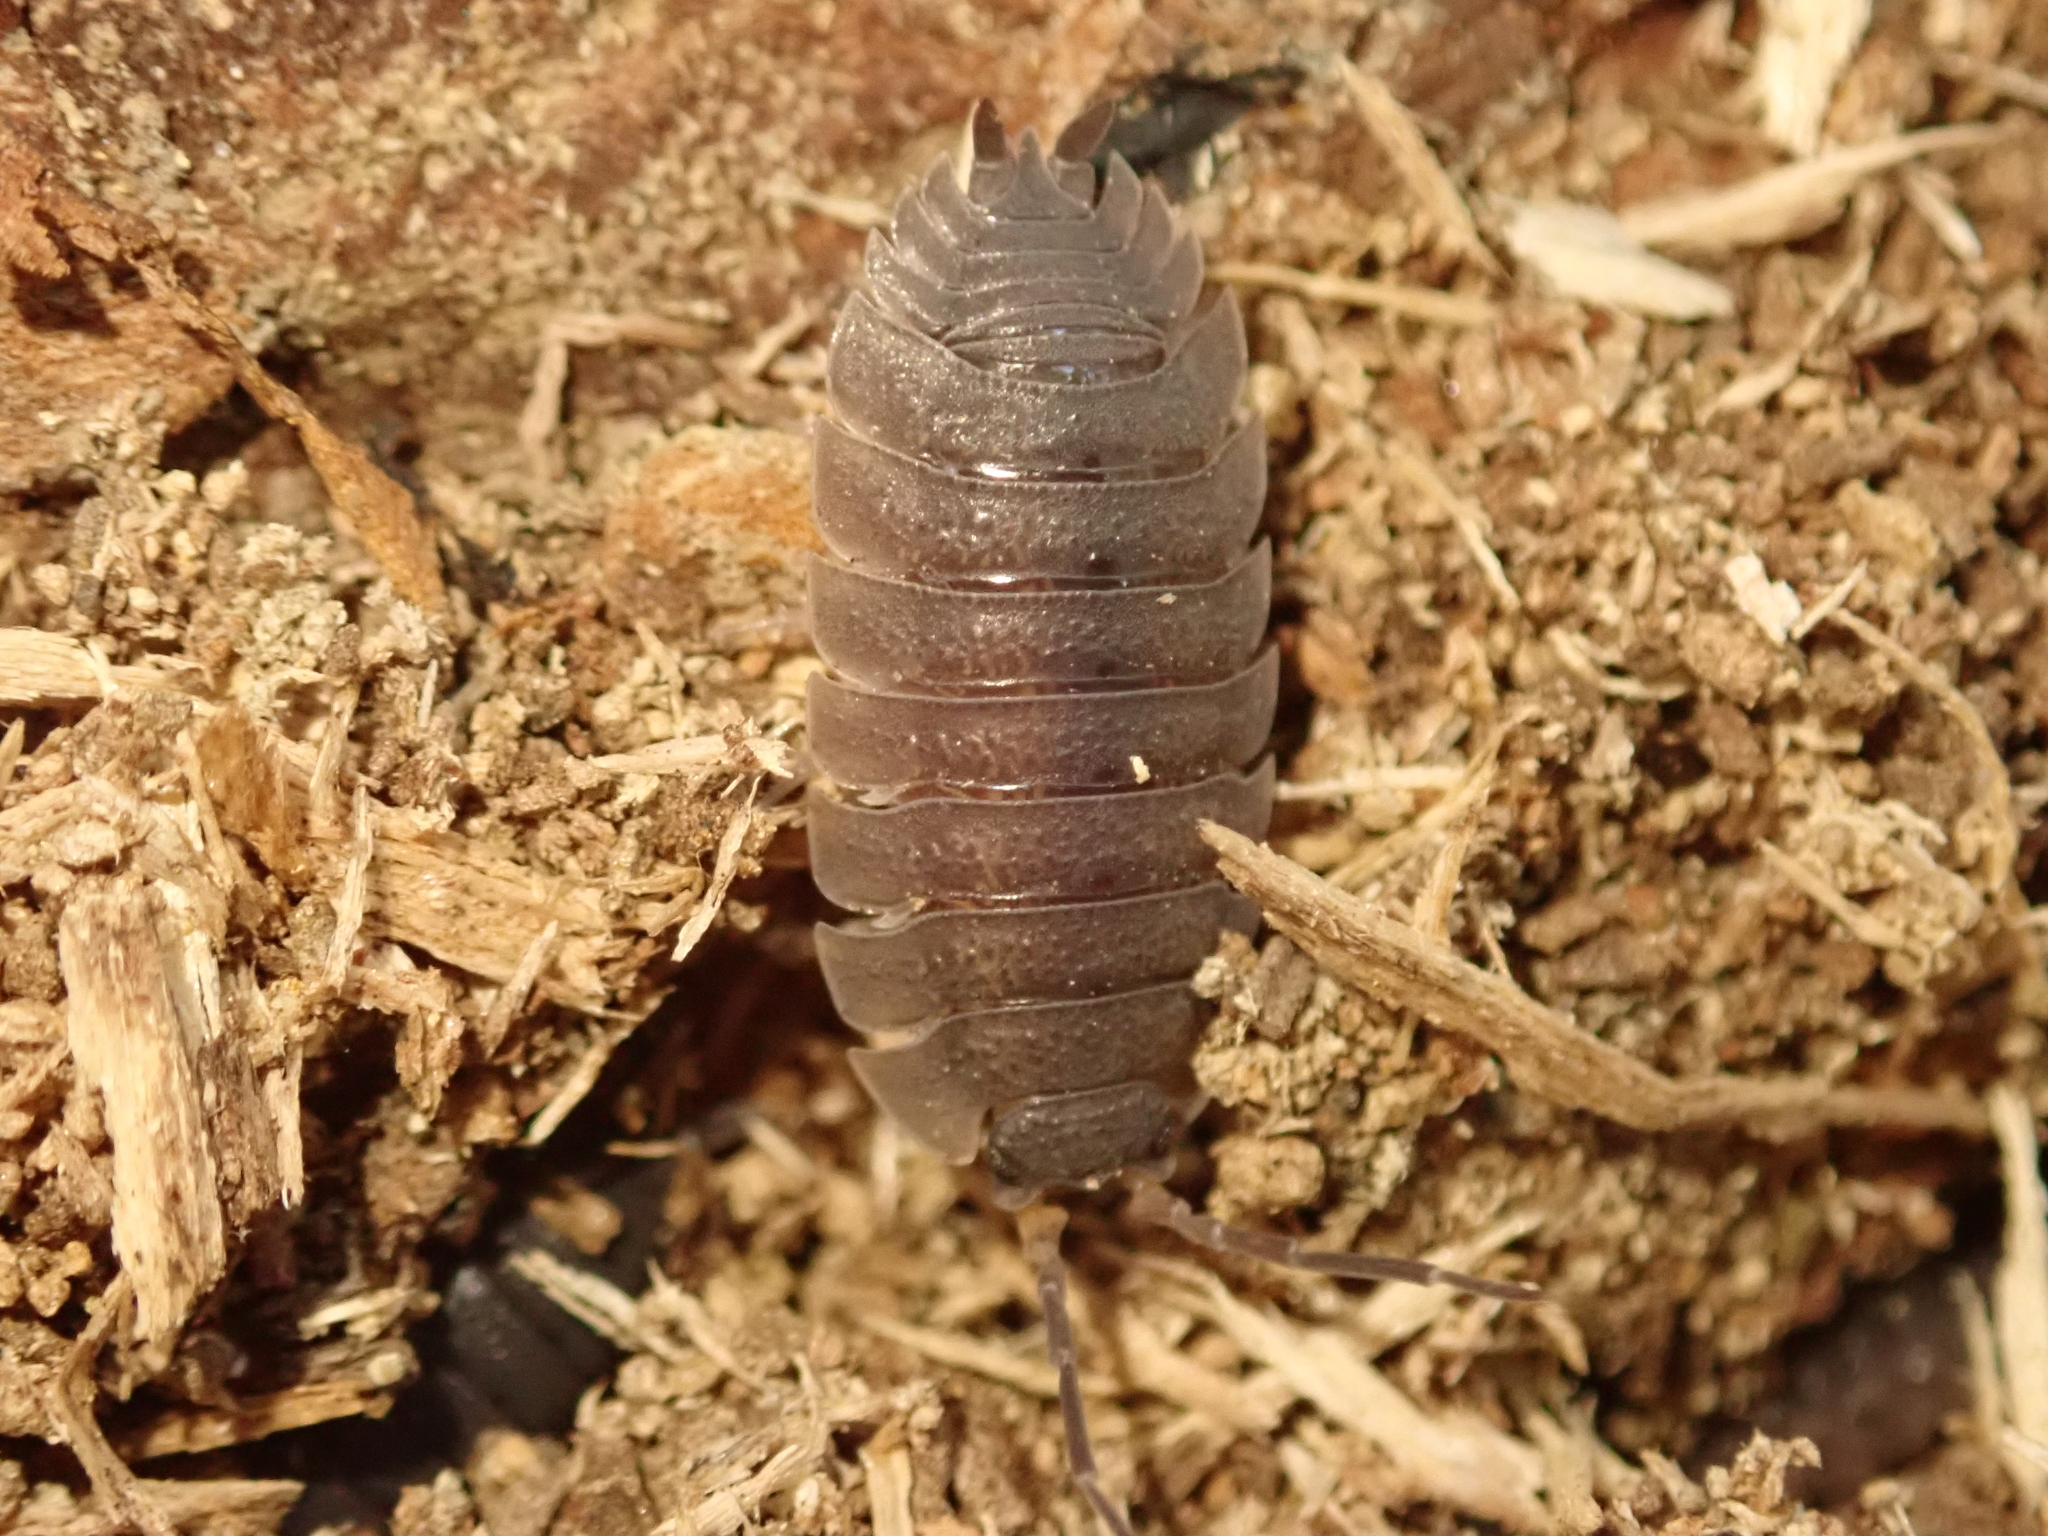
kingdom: Animalia
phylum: Arthropoda
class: Malacostraca
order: Isopoda
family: Porcellionidae
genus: Porcellio
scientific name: Porcellio scaber
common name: Common rough woodlouse
